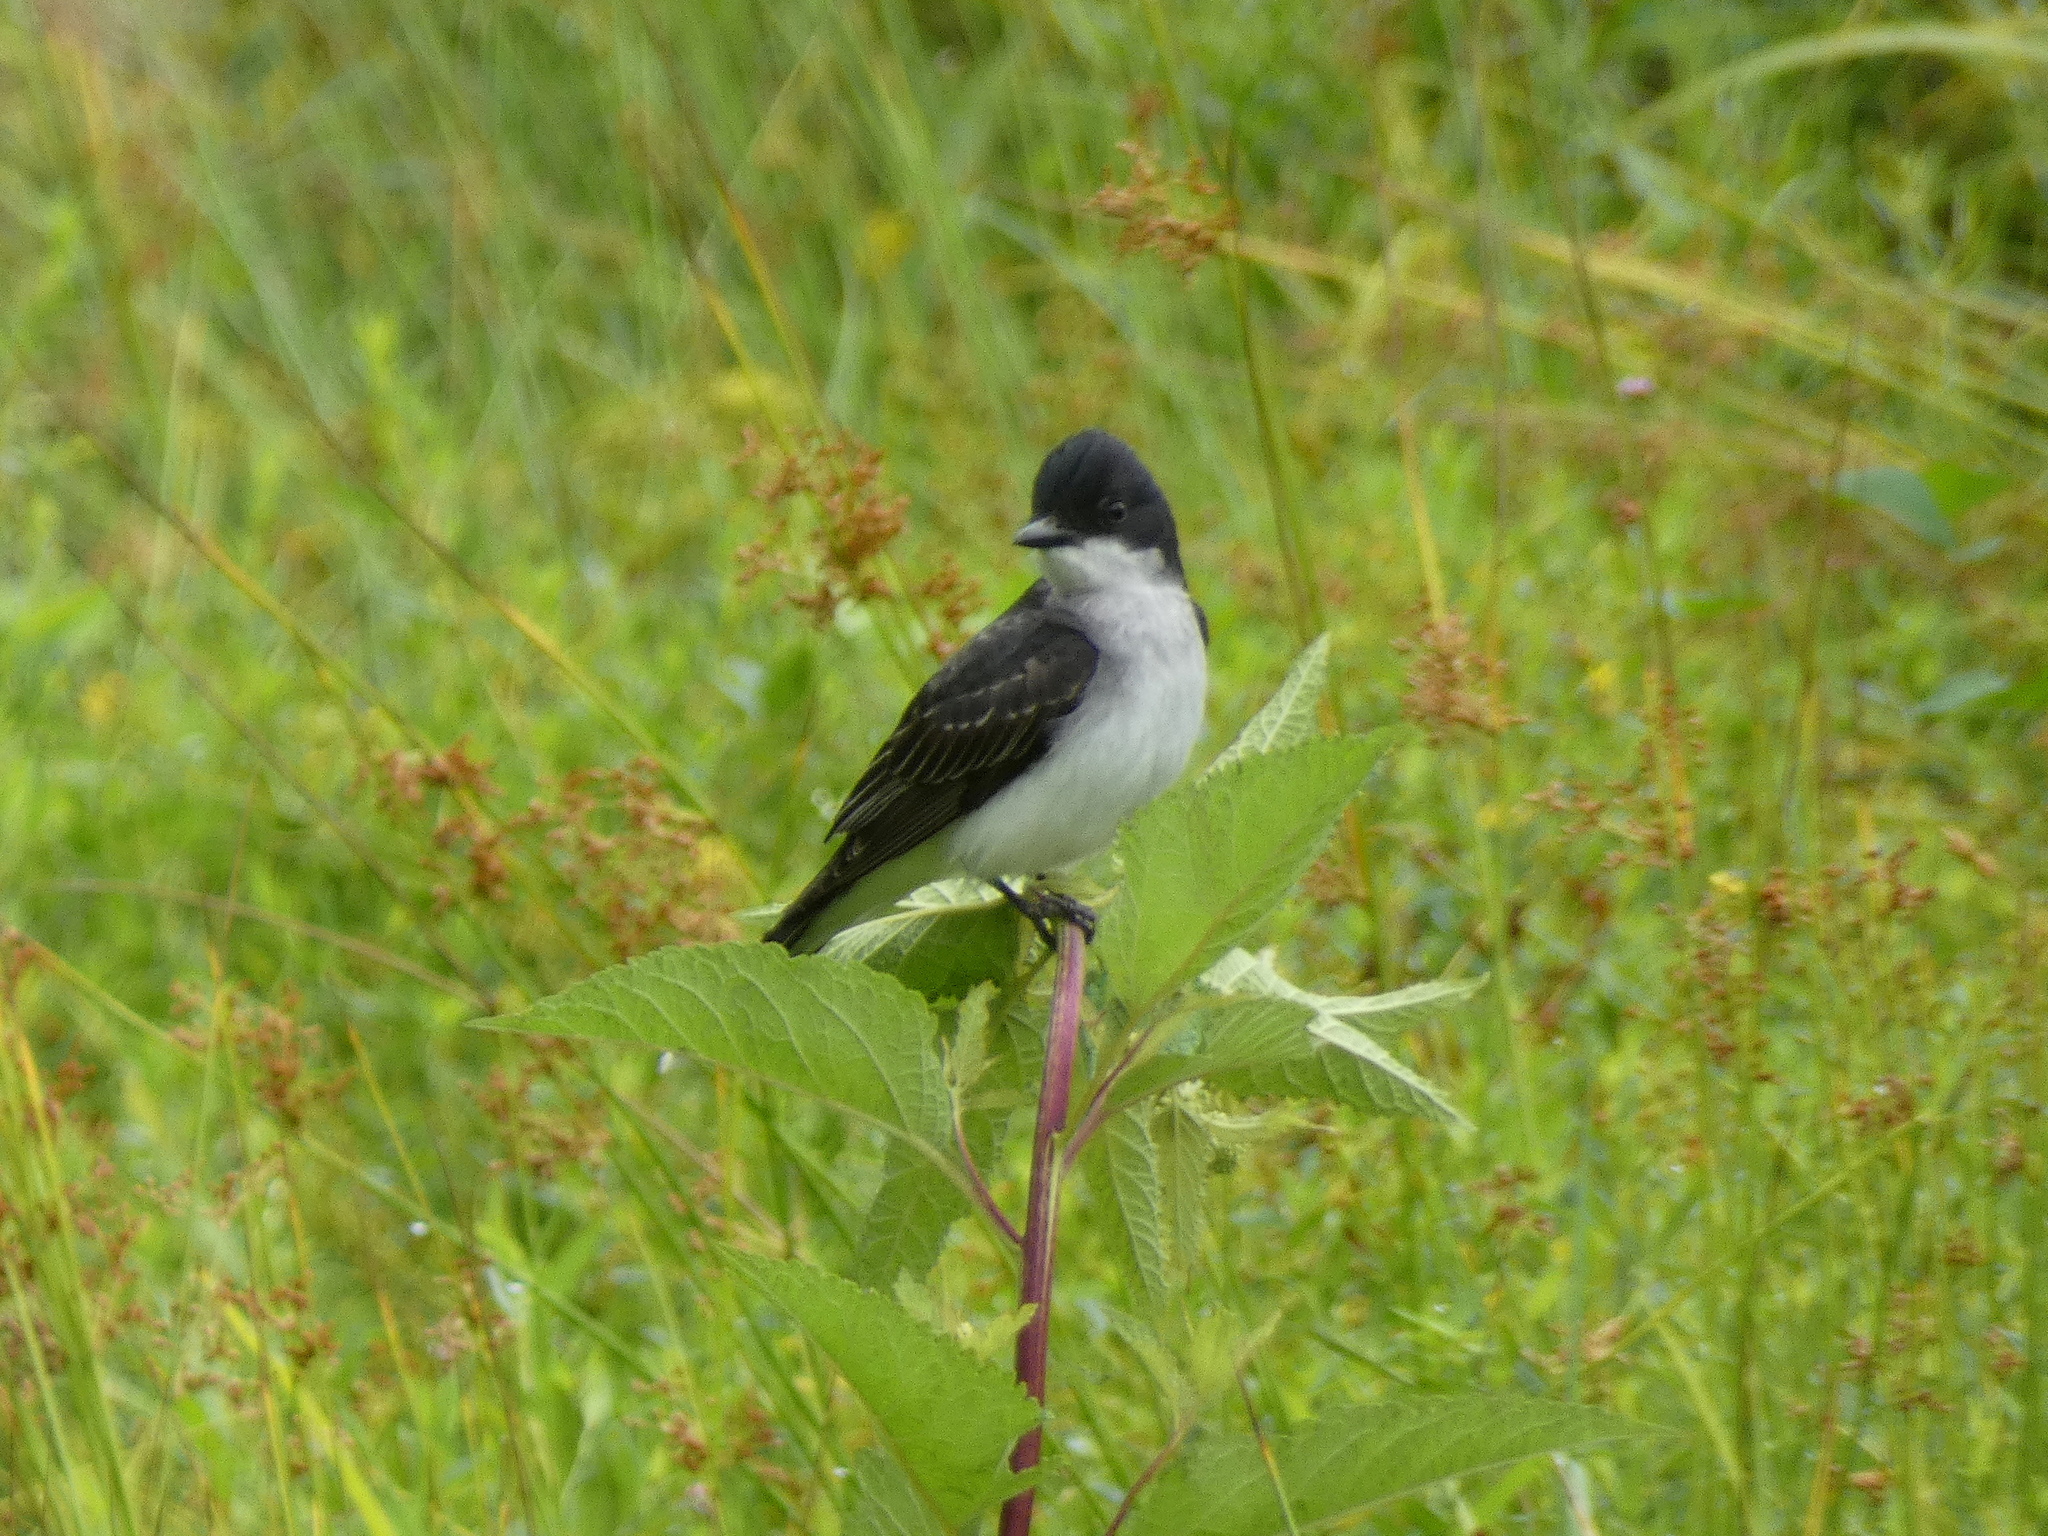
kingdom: Animalia
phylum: Chordata
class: Aves
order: Passeriformes
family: Tyrannidae
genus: Tyrannus
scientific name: Tyrannus tyrannus
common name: Eastern kingbird
